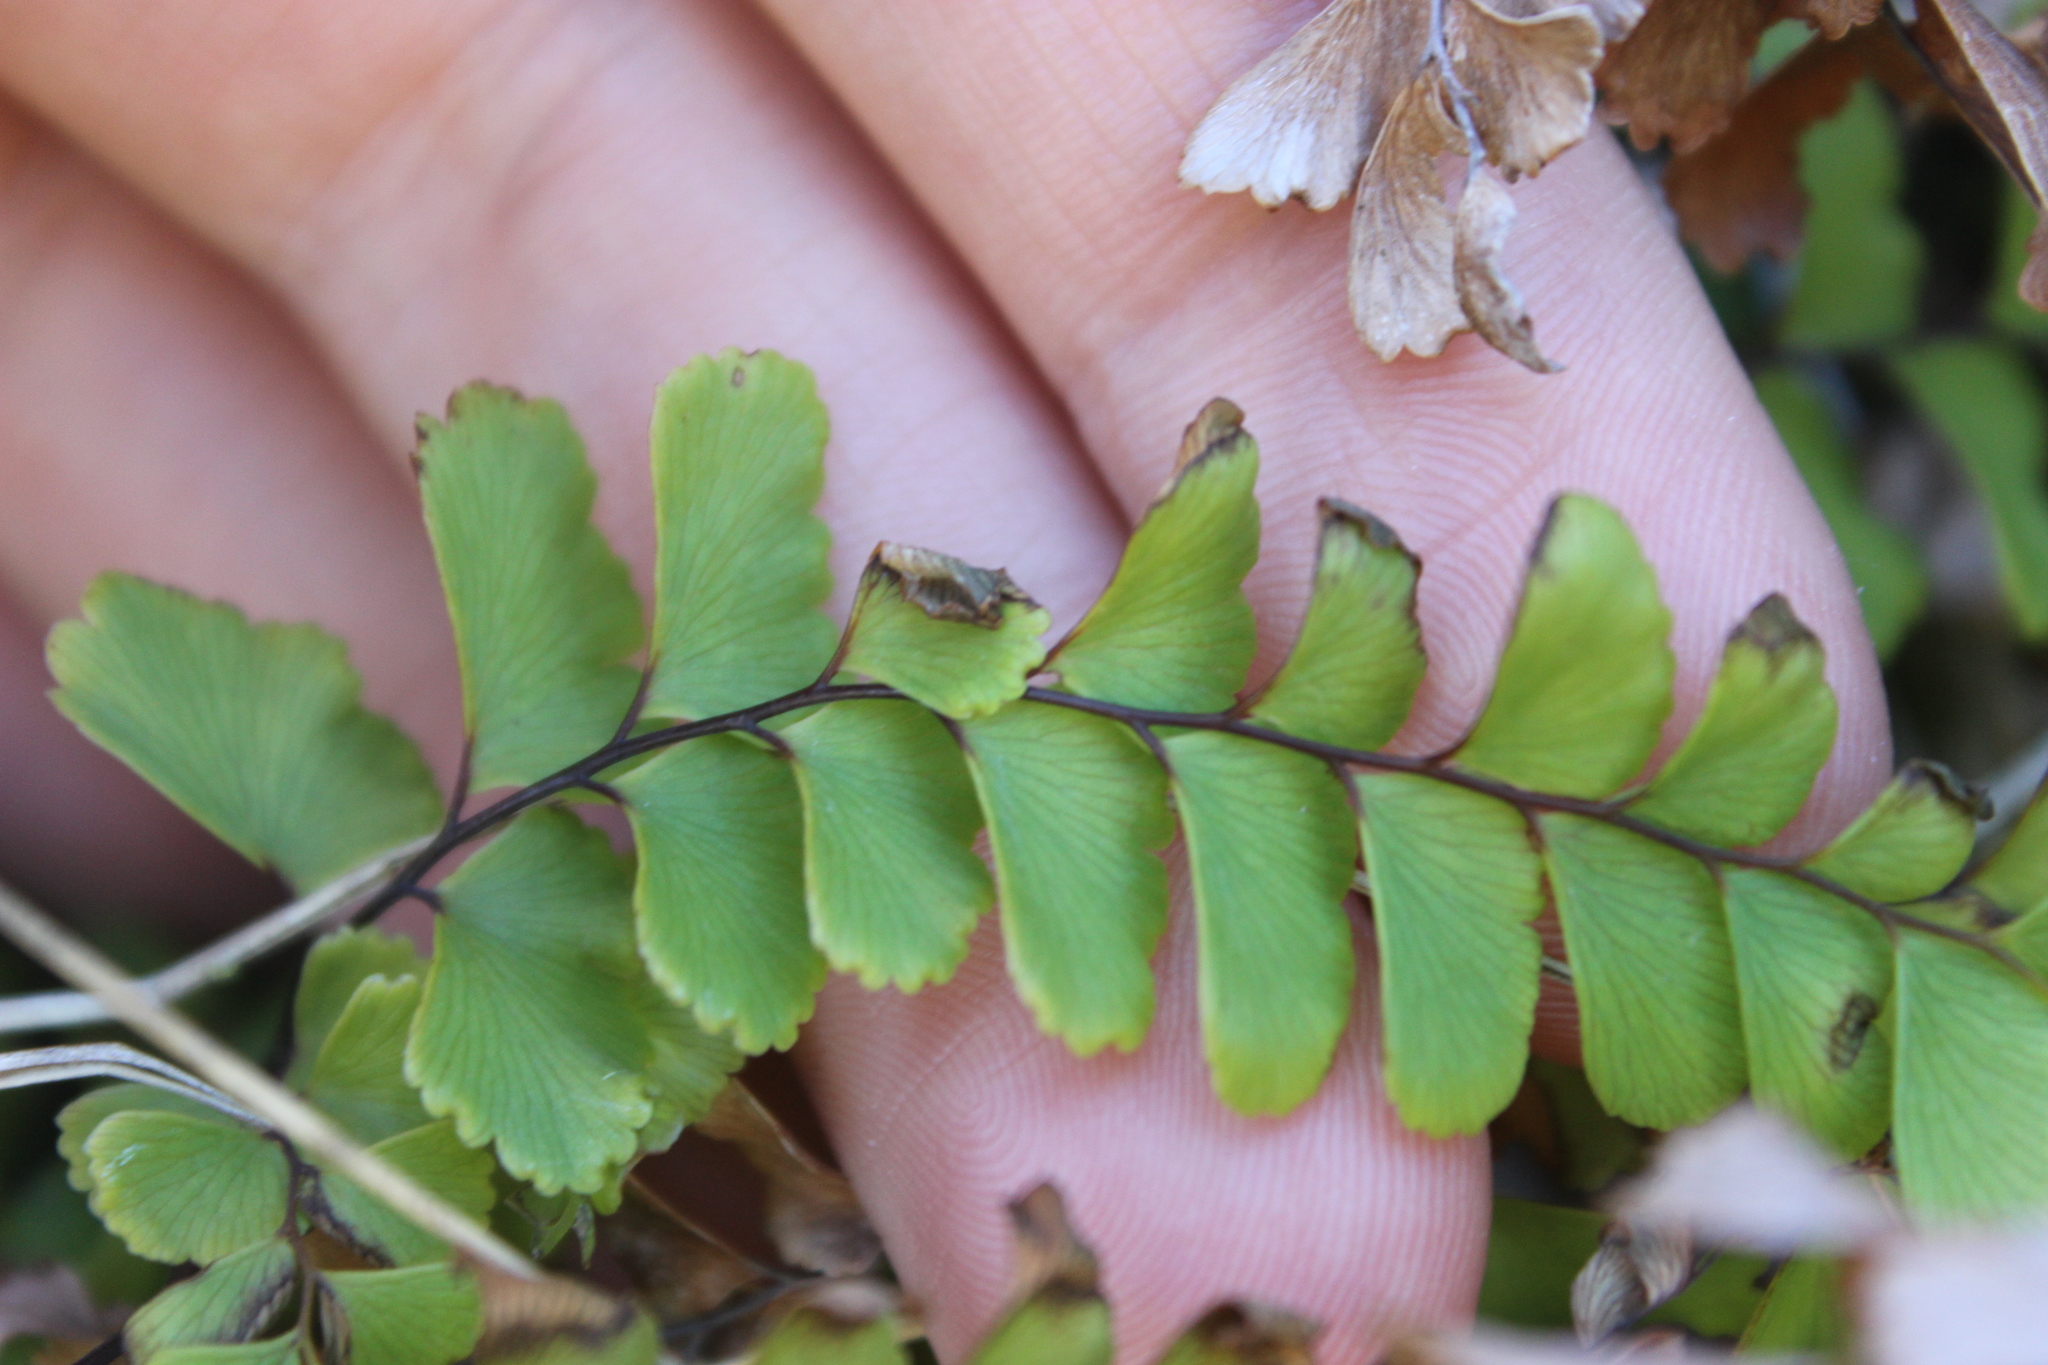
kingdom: Plantae
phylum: Tracheophyta
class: Polypodiopsida
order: Polypodiales
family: Pteridaceae
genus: Adiantum
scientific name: Adiantum cunninghamii
